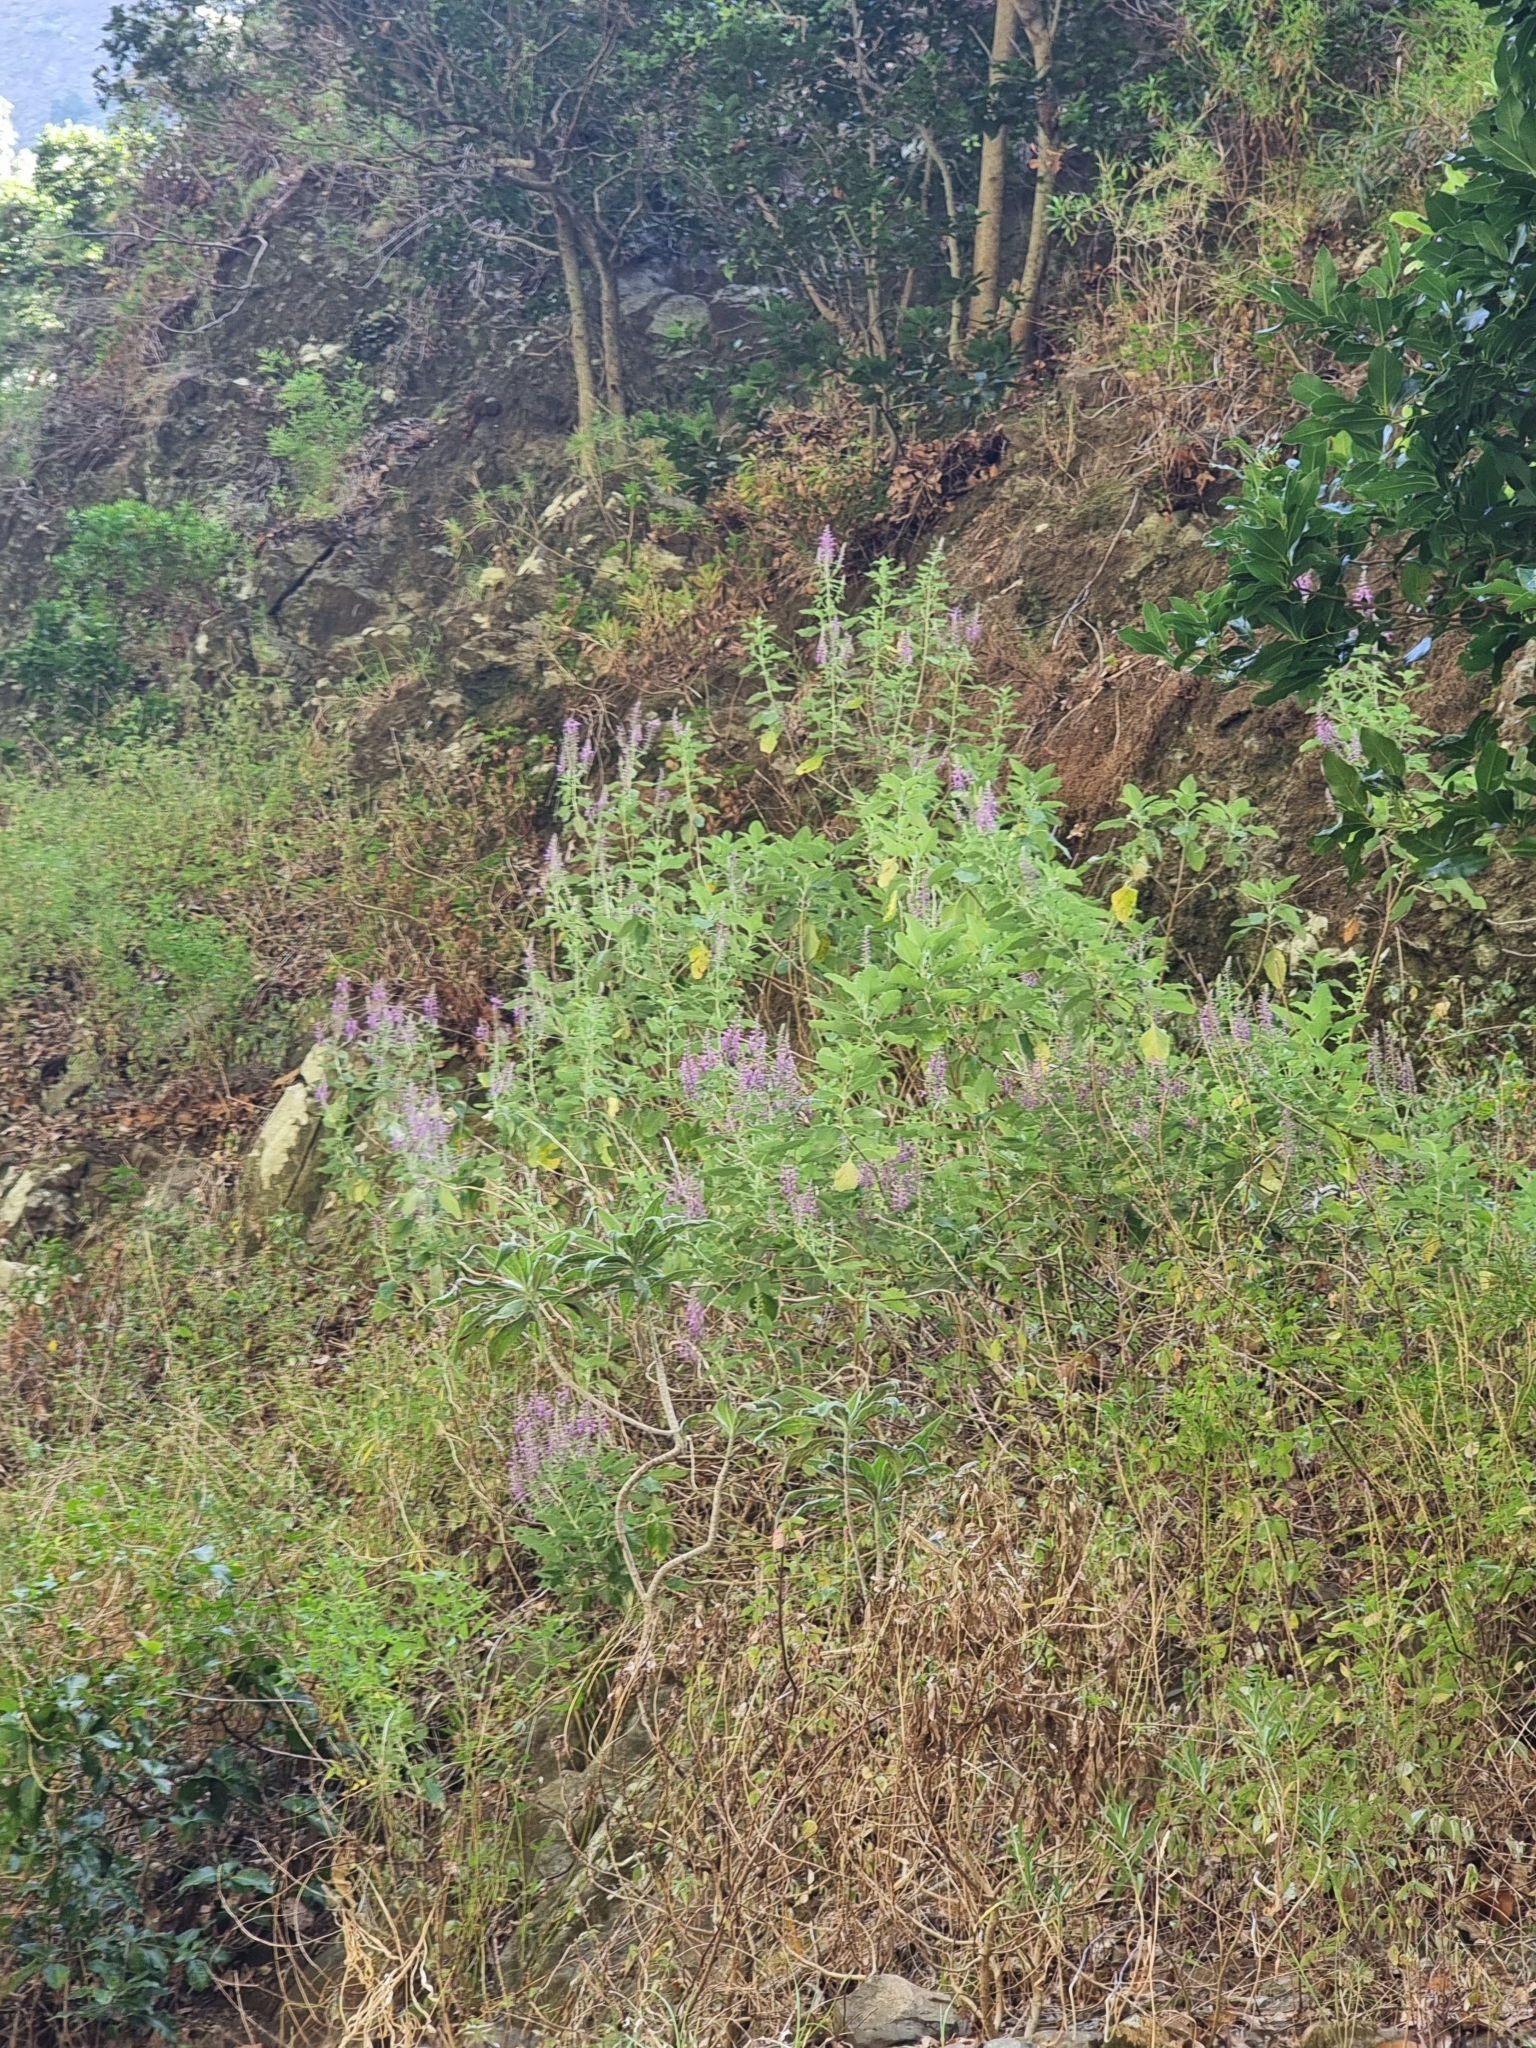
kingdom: Plantae
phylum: Tracheophyta
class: Magnoliopsida
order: Lamiales
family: Lamiaceae
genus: Teucrium
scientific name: Teucrium betonicum
